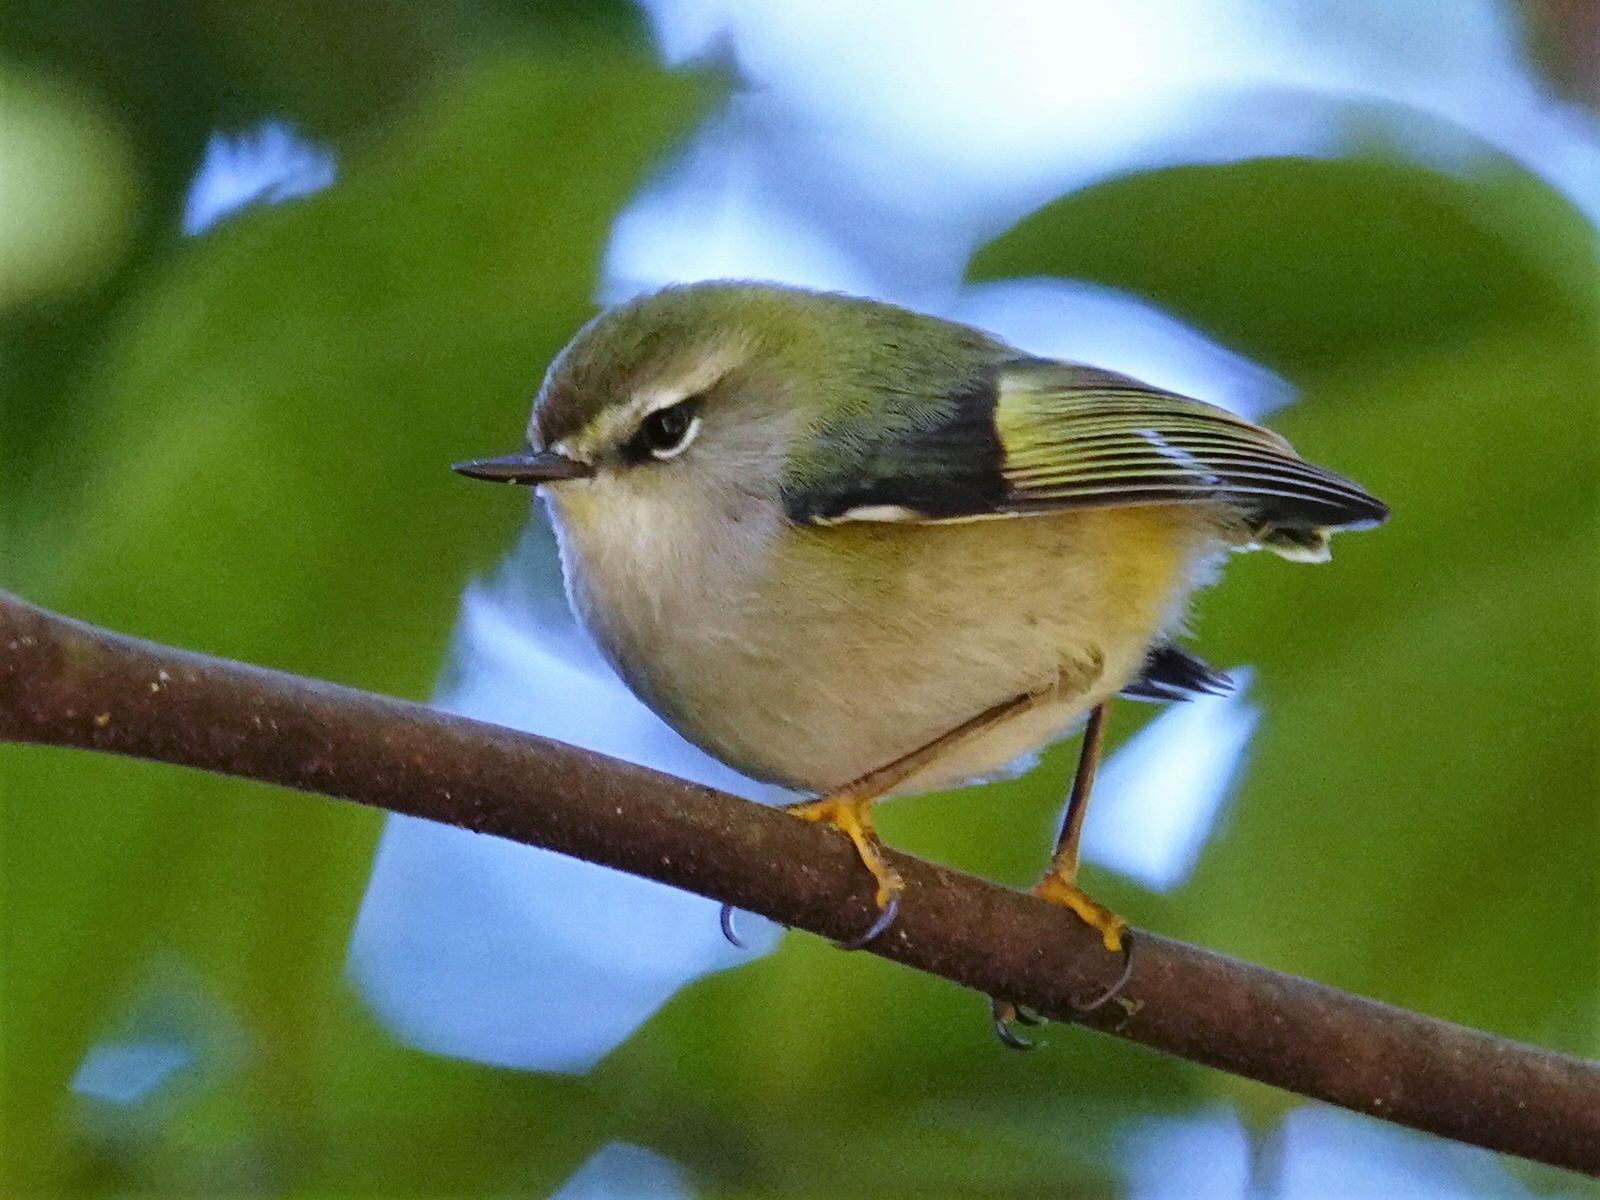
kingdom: Animalia
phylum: Chordata
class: Aves
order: Passeriformes
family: Acanthisittidae
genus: Acanthisitta
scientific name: Acanthisitta chloris
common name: Rifleman
